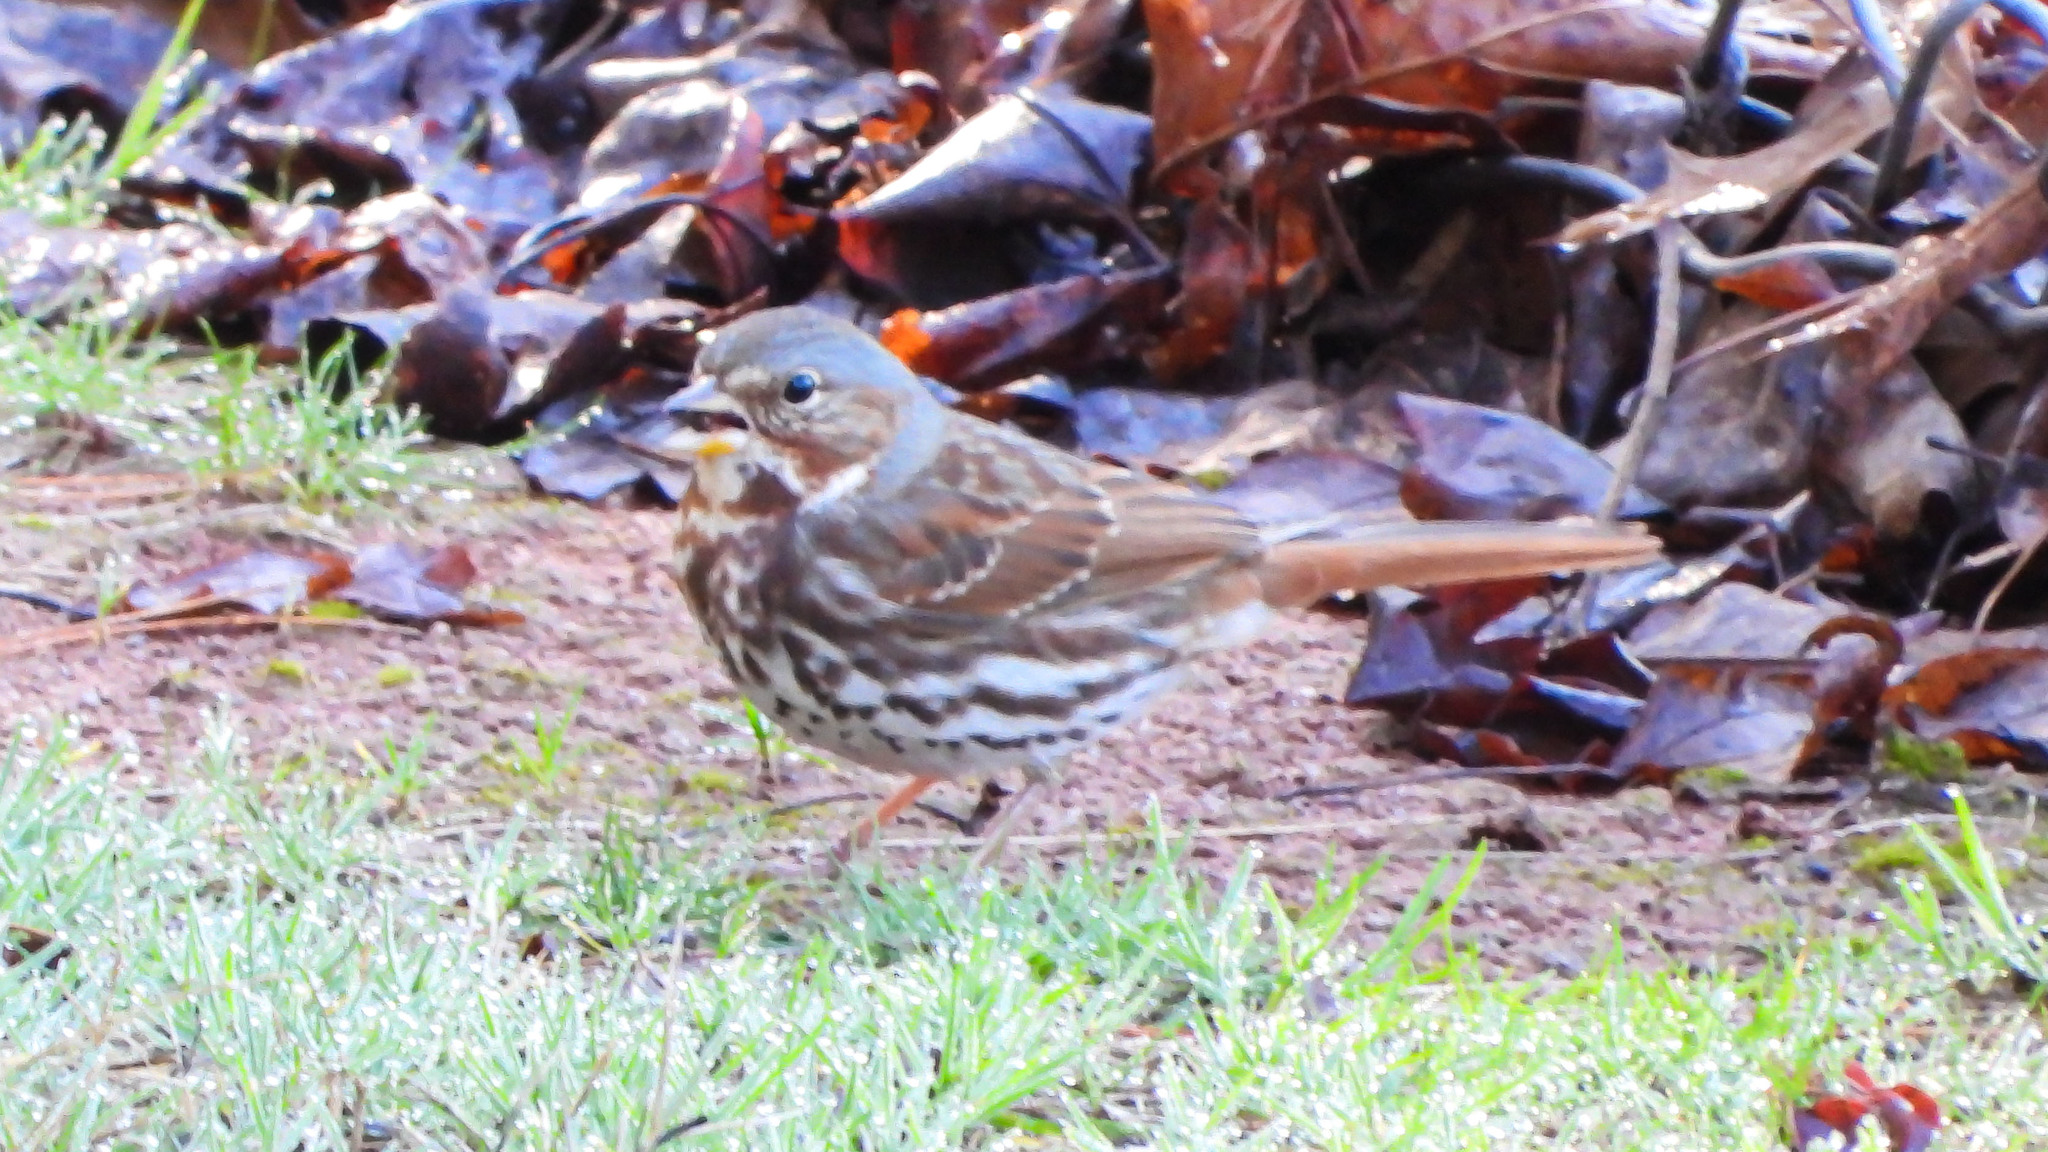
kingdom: Animalia
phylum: Chordata
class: Aves
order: Passeriformes
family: Passerellidae
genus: Passerella
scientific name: Passerella iliaca
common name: Fox sparrow
